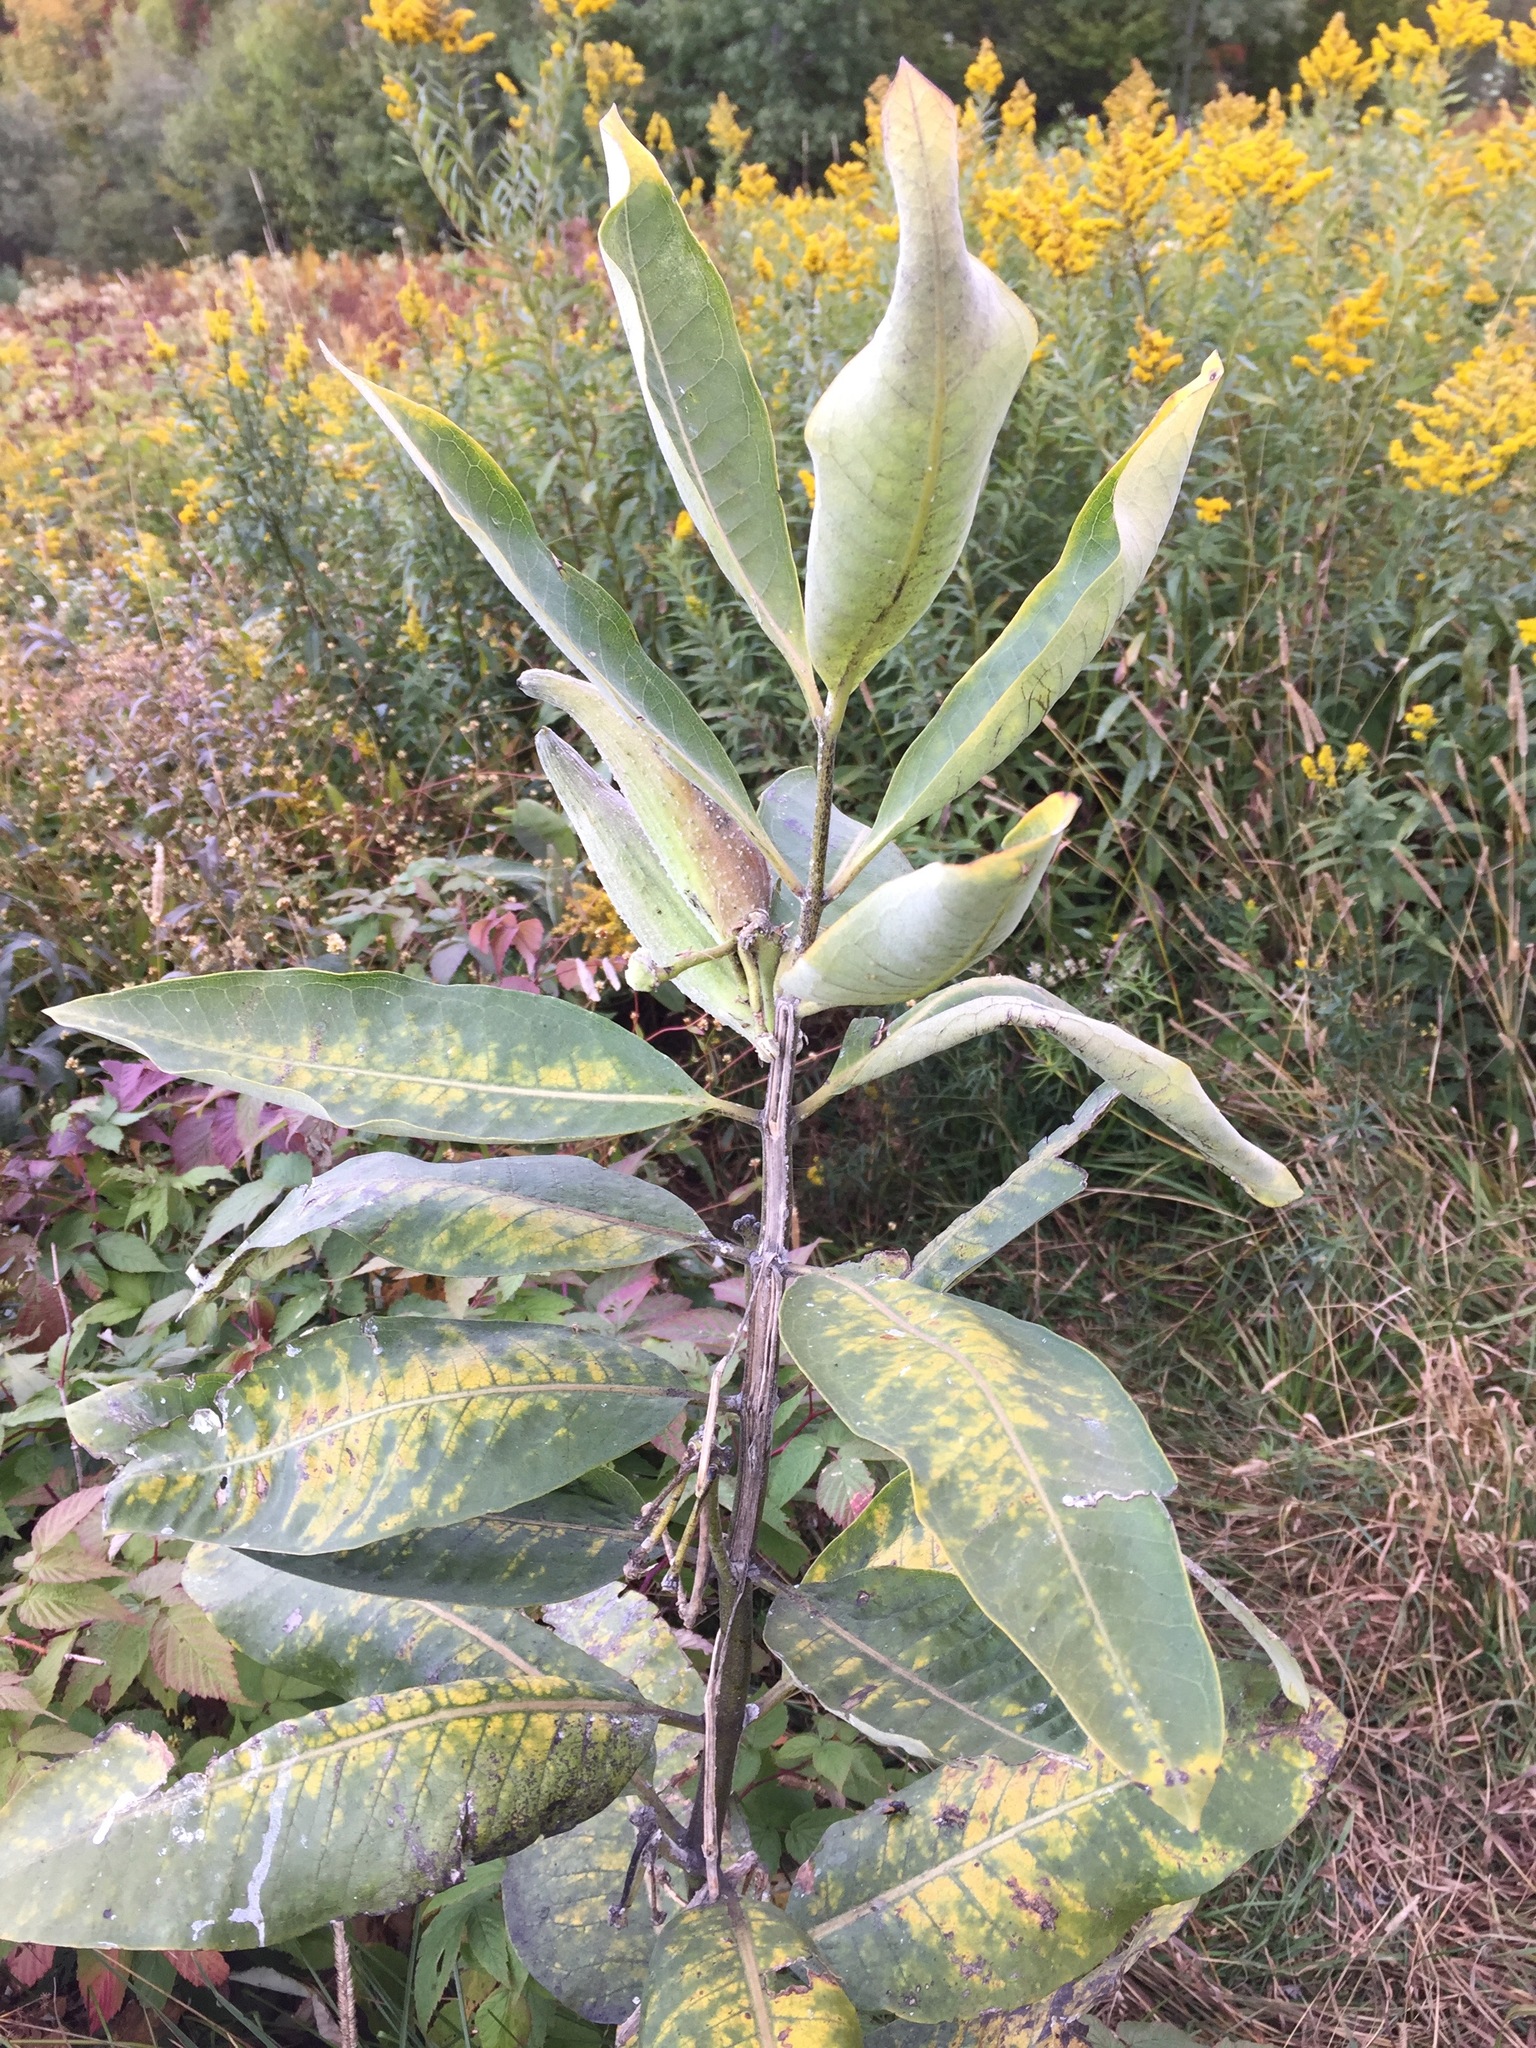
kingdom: Plantae
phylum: Tracheophyta
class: Magnoliopsida
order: Gentianales
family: Apocynaceae
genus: Asclepias
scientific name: Asclepias syriaca
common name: Common milkweed
